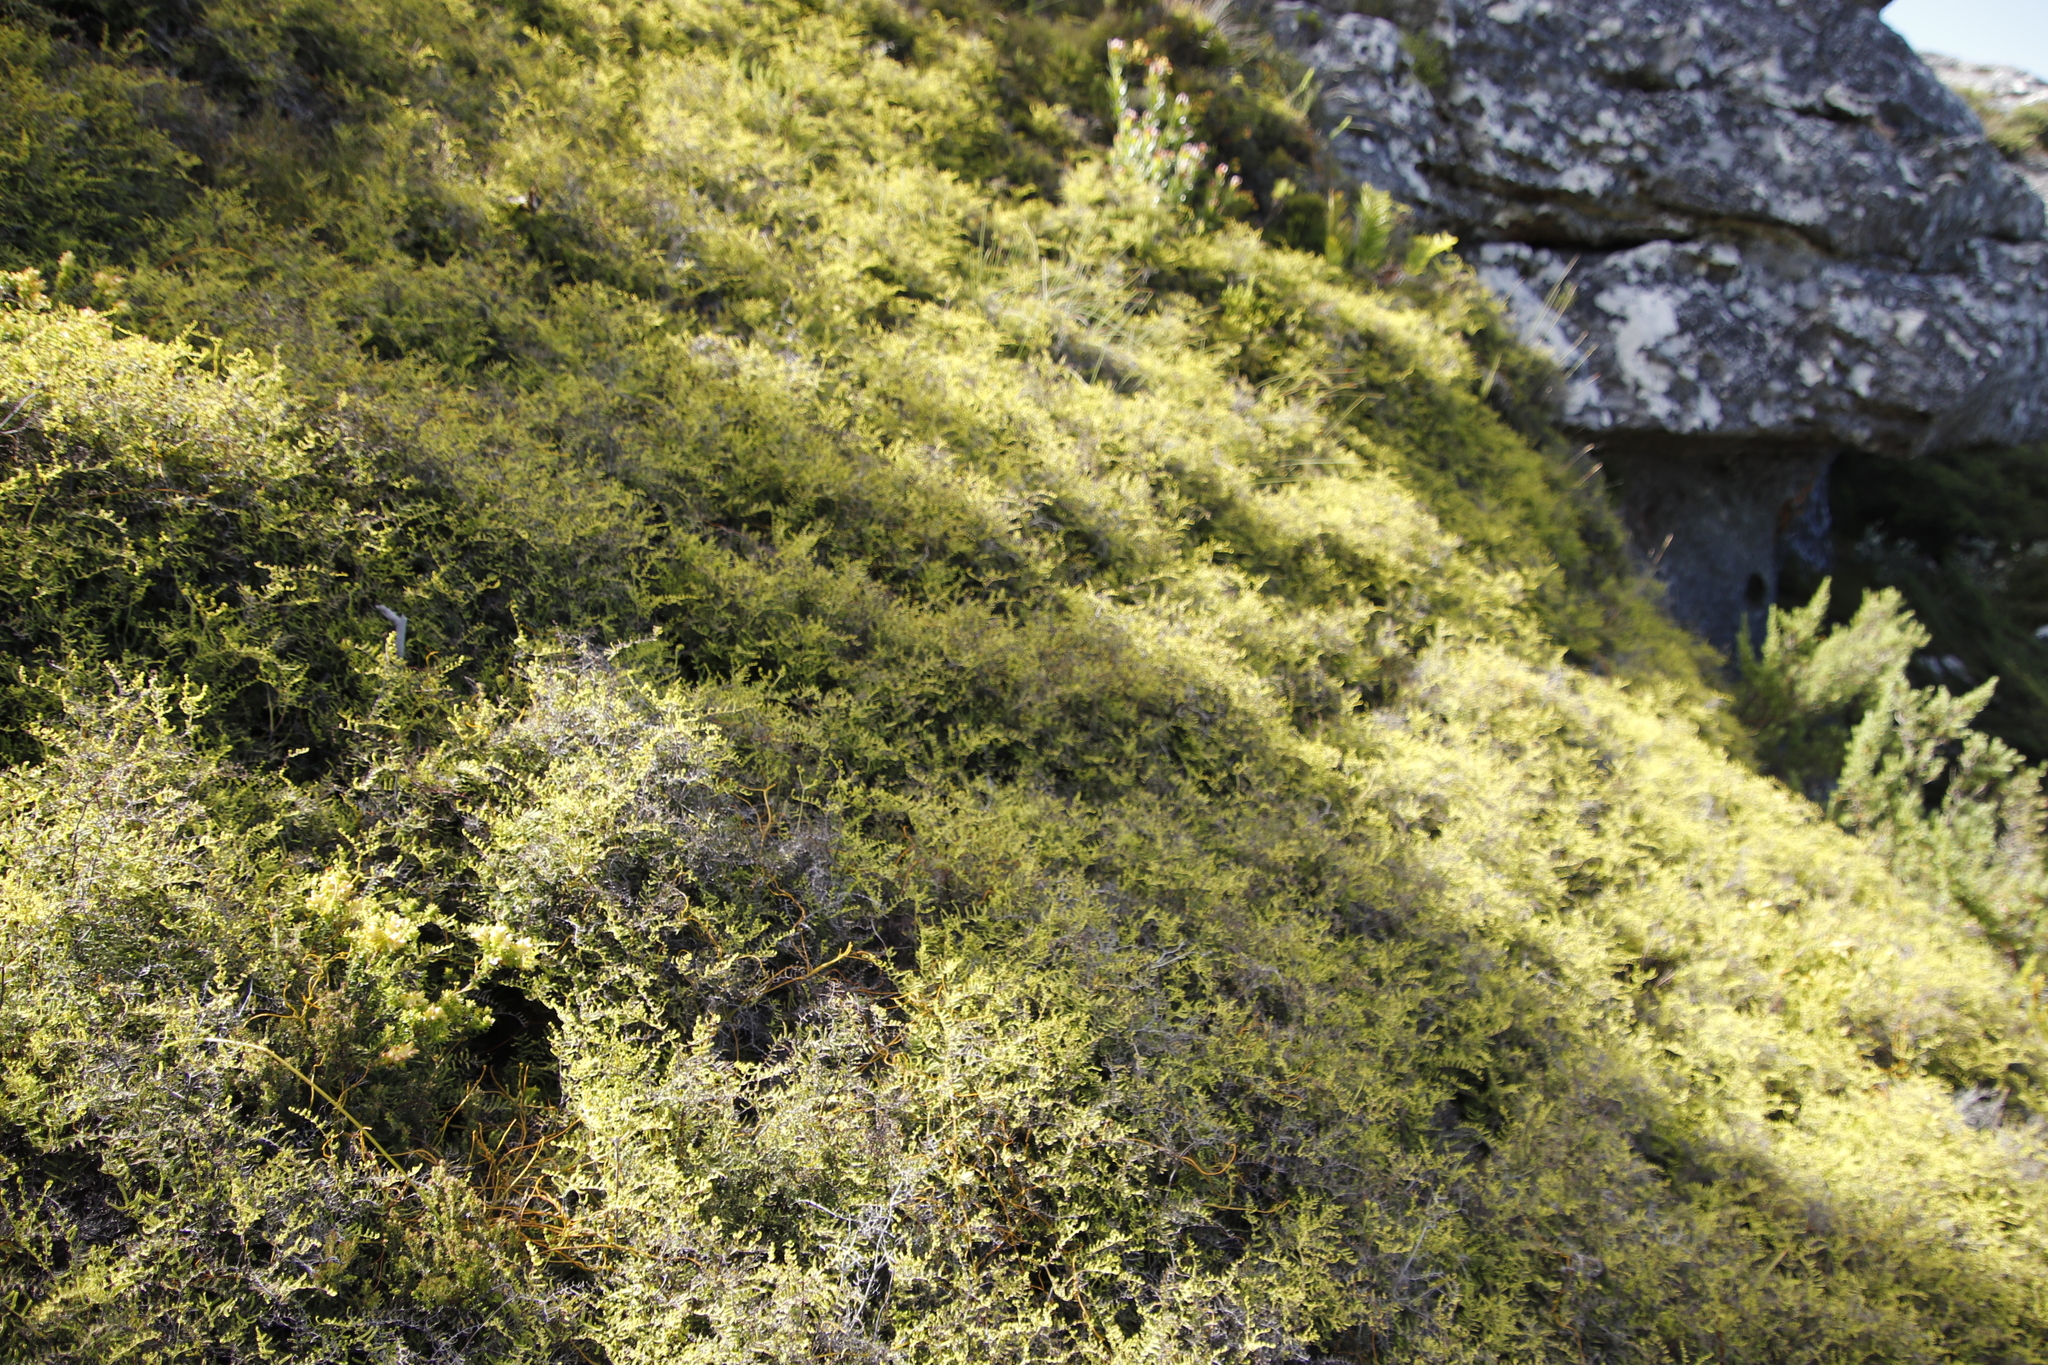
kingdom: Plantae
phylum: Tracheophyta
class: Polypodiopsida
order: Gleicheniales
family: Gleicheniaceae
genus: Gleichenia
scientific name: Gleichenia polypodioides
